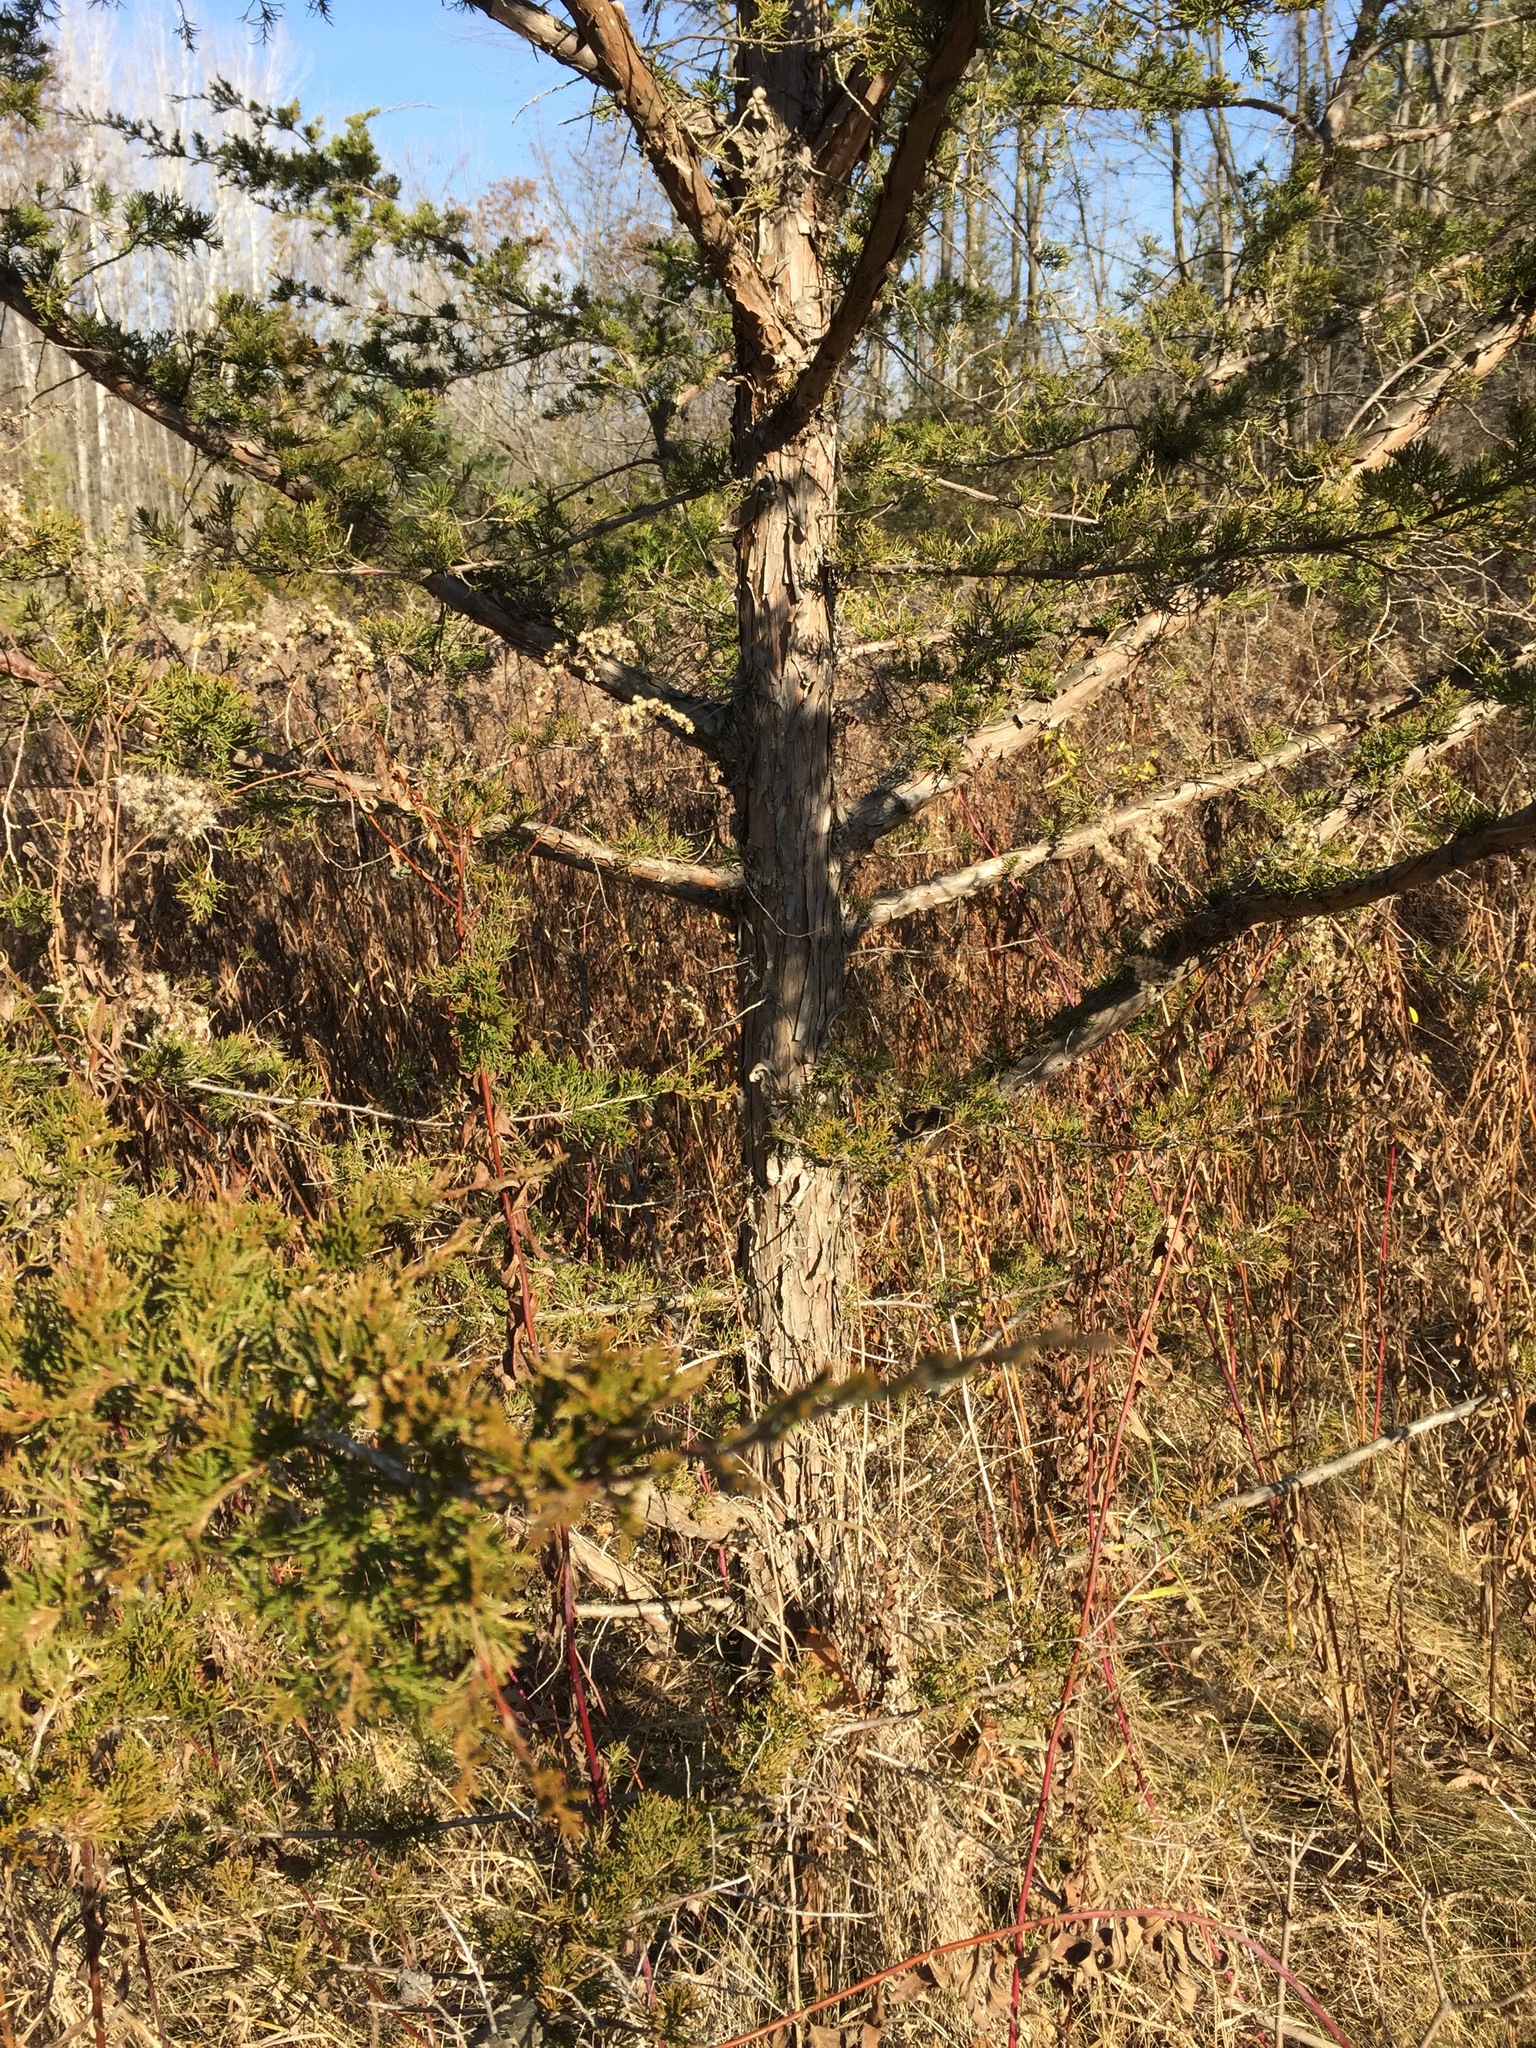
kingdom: Plantae
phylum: Tracheophyta
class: Pinopsida
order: Pinales
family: Cupressaceae
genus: Juniperus
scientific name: Juniperus virginiana
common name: Red juniper
